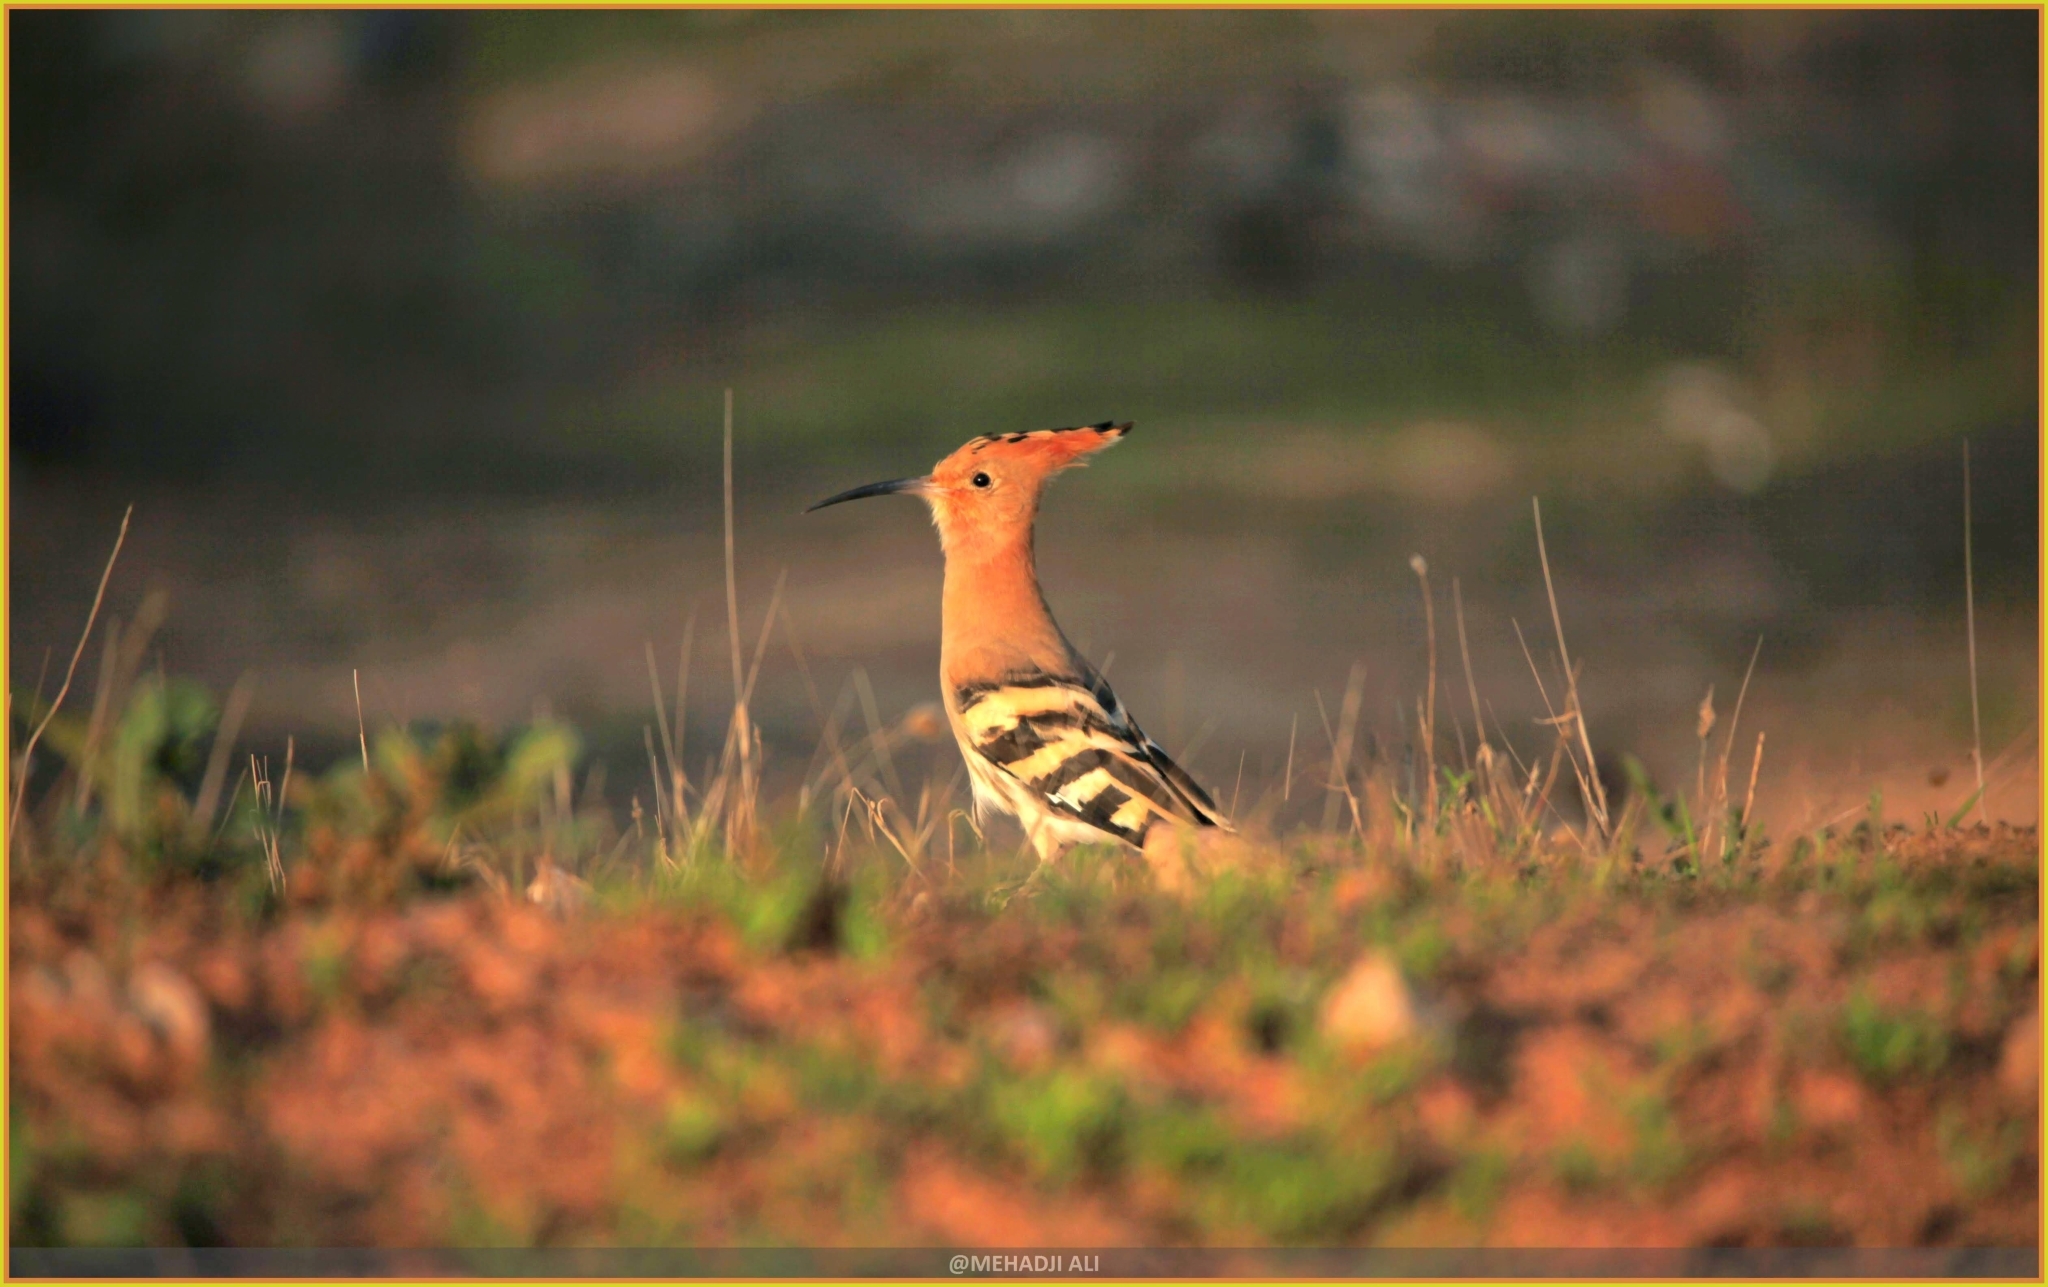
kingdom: Animalia
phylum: Chordata
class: Aves
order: Bucerotiformes
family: Upupidae
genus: Upupa
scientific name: Upupa epops
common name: Eurasian hoopoe
